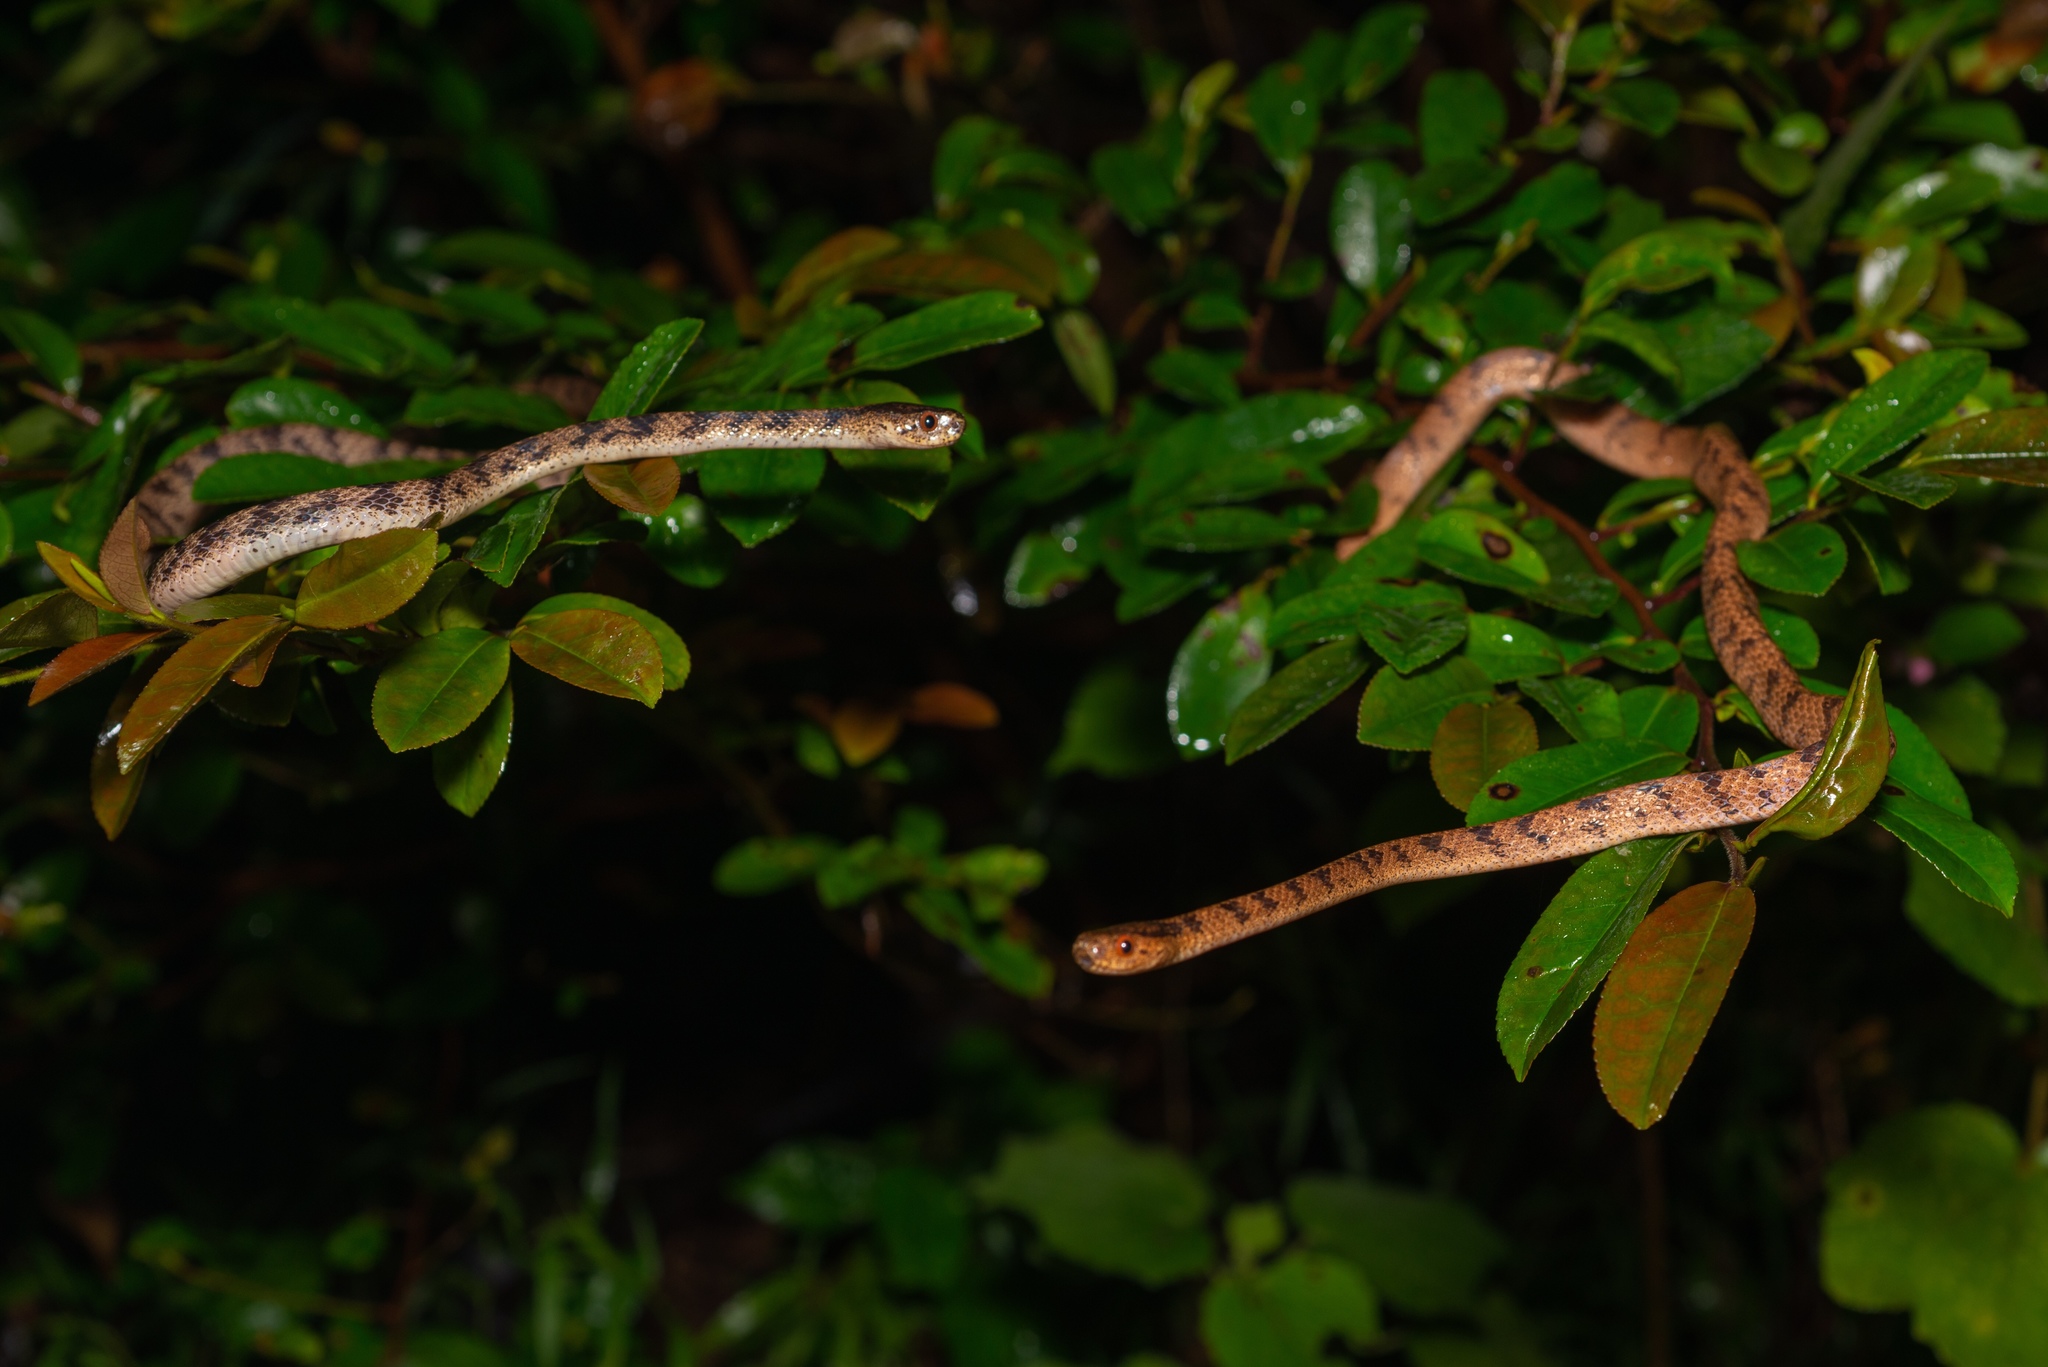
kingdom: Animalia
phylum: Chordata
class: Squamata
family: Pareidae
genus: Pareas
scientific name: Pareas chinensis
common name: Chinese slug snake
